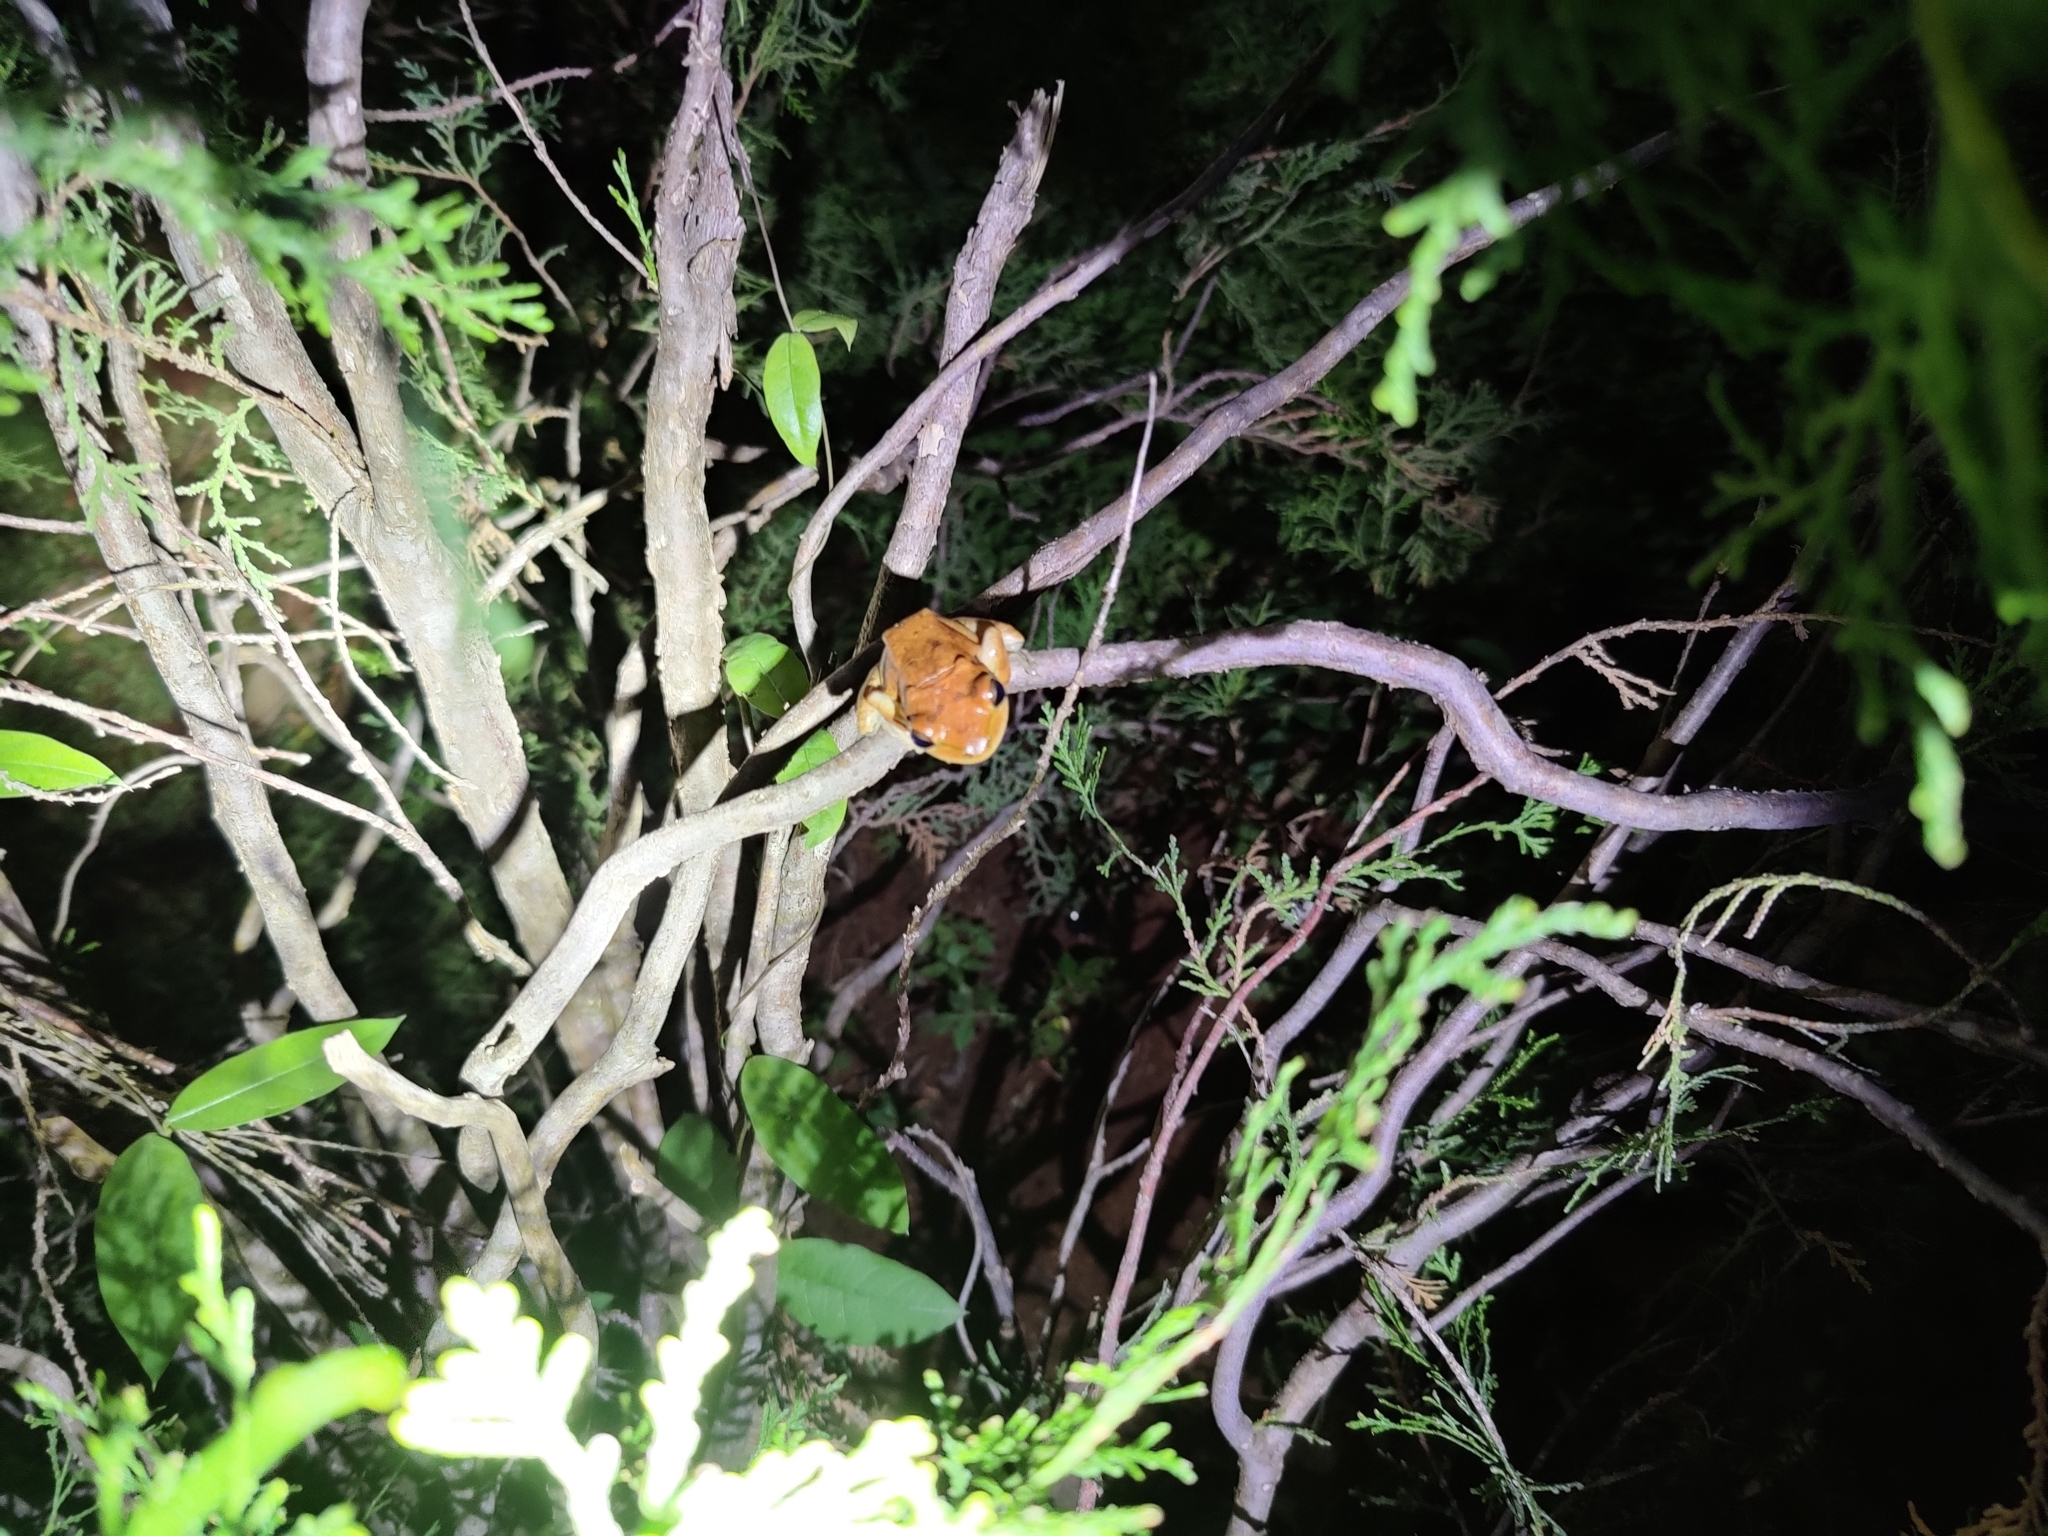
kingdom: Animalia
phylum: Chordata
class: Amphibia
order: Anura
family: Rhacophoridae
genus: Polypedates
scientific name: Polypedates maculatus
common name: Himalayan tree frog
